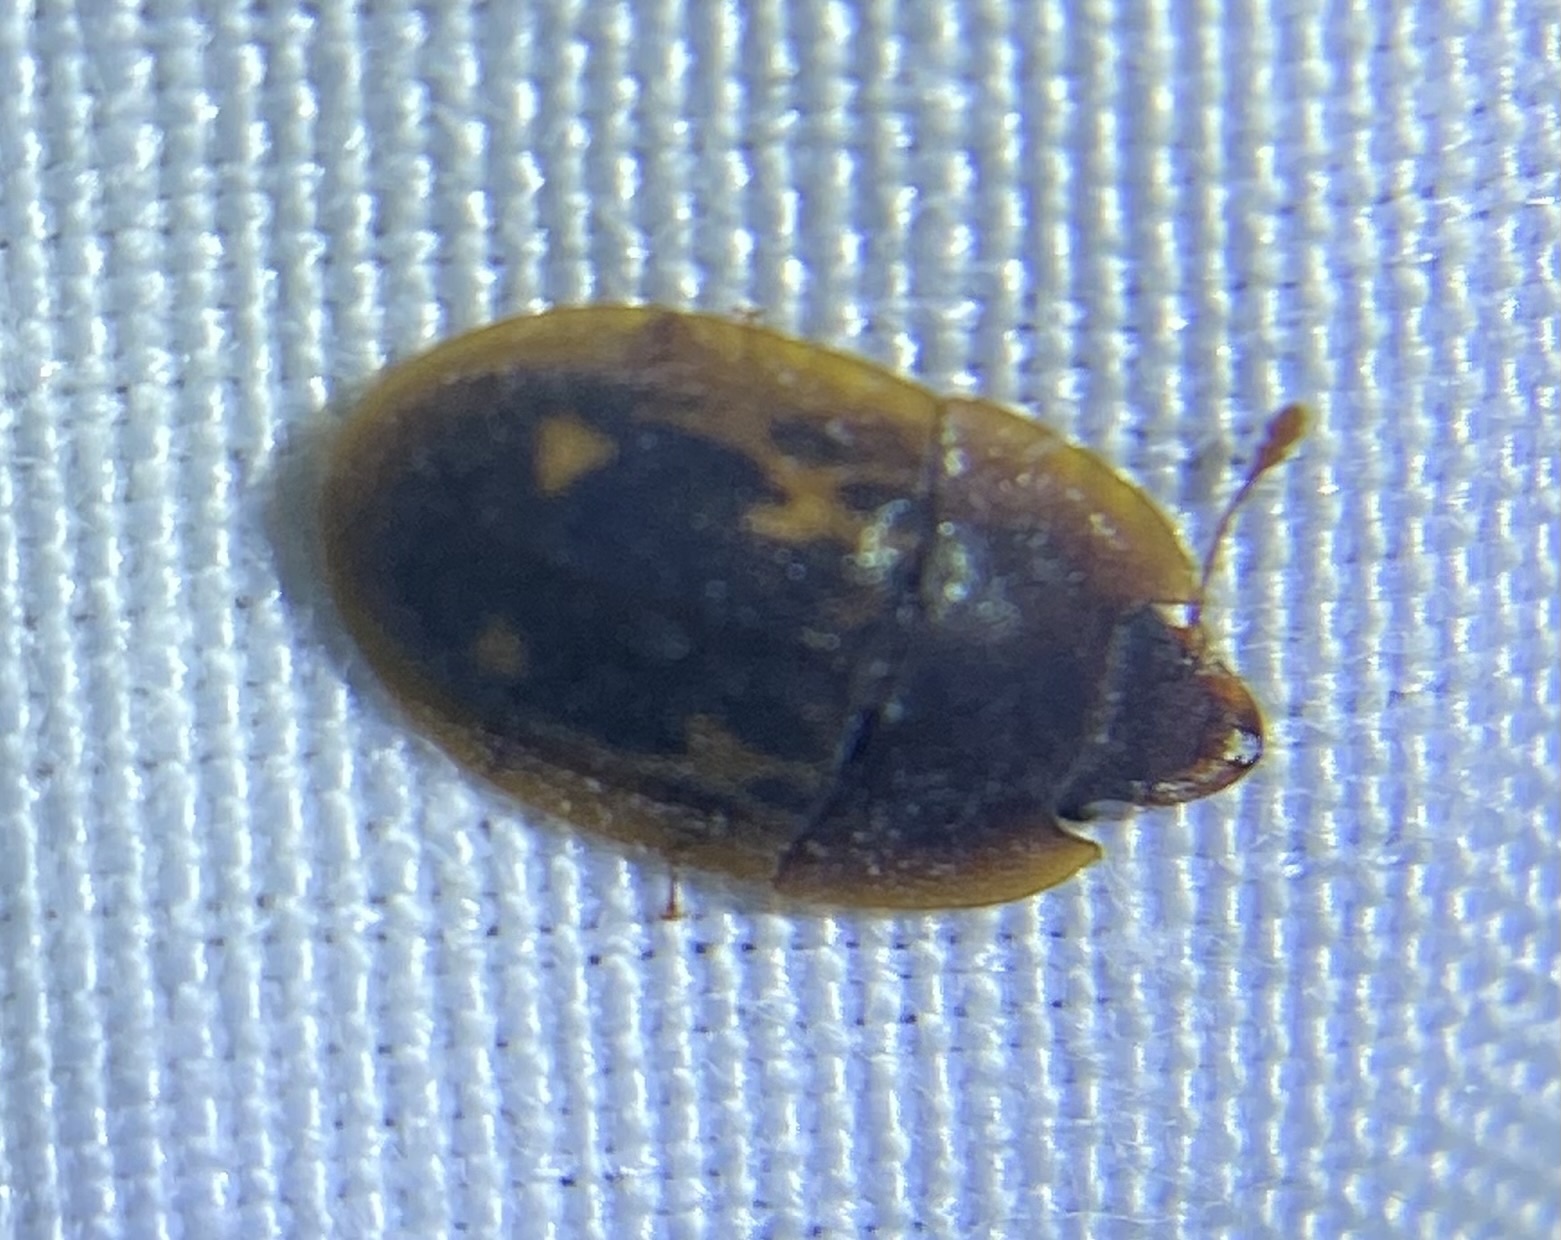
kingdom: Animalia
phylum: Arthropoda
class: Insecta
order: Coleoptera
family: Nitidulidae
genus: Prometopia
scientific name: Prometopia sexmaculata
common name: Six-spotted sap-feeding beetle
